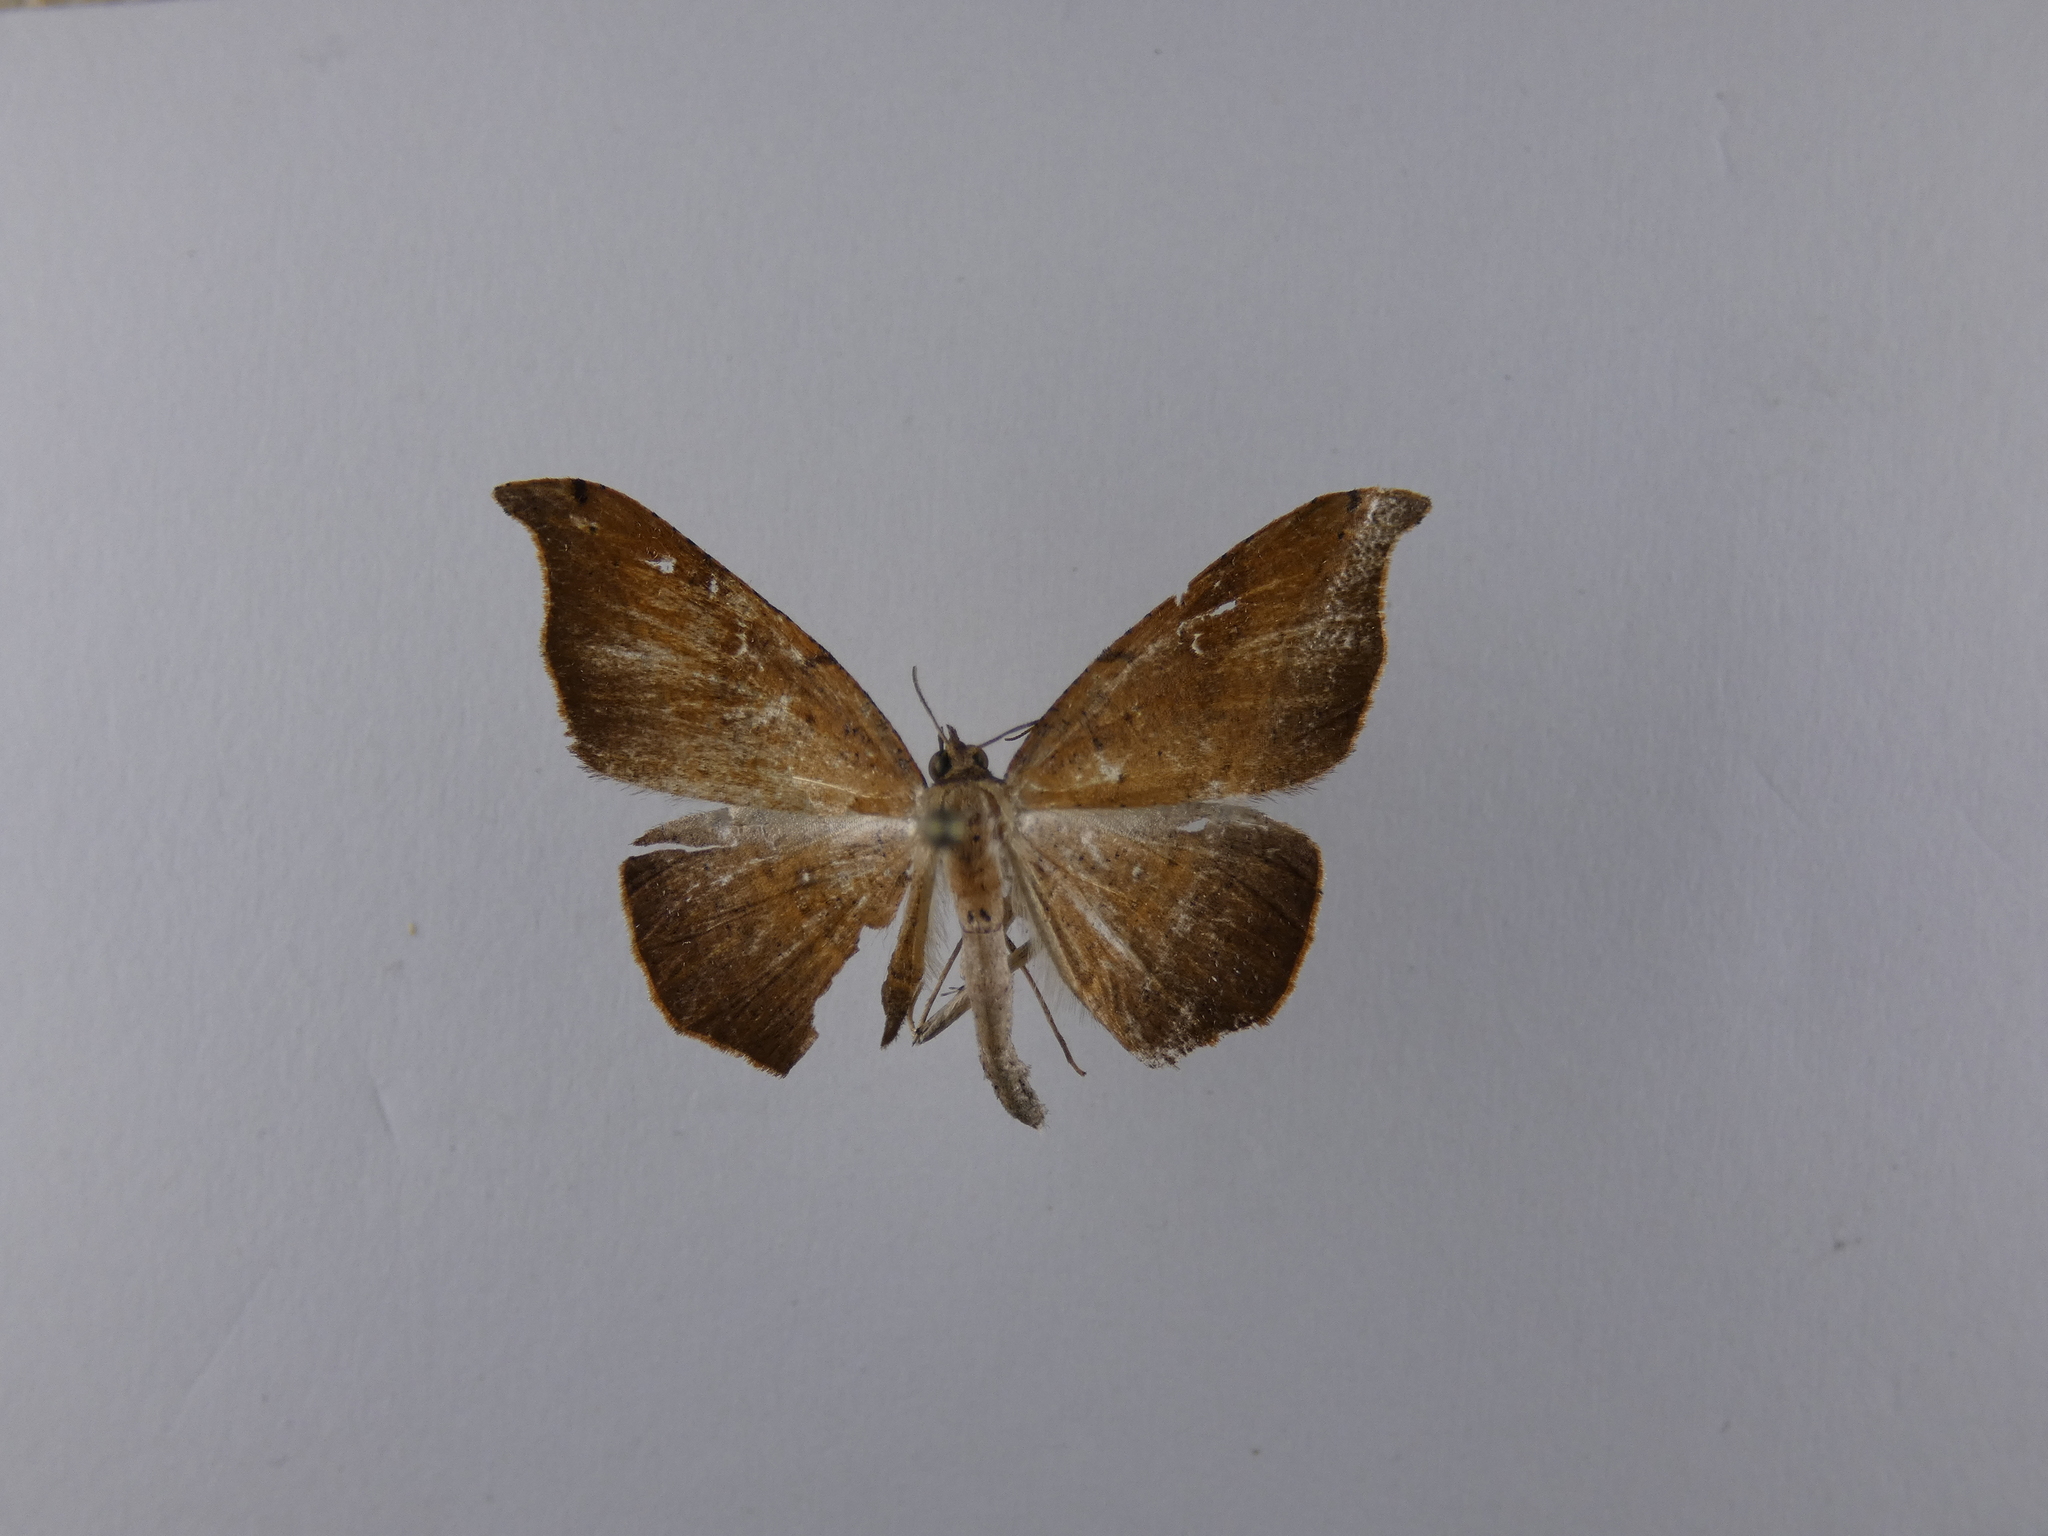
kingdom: Animalia
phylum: Arthropoda
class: Insecta
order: Lepidoptera
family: Geometridae
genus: Sarisa
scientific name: Sarisa muriferata
